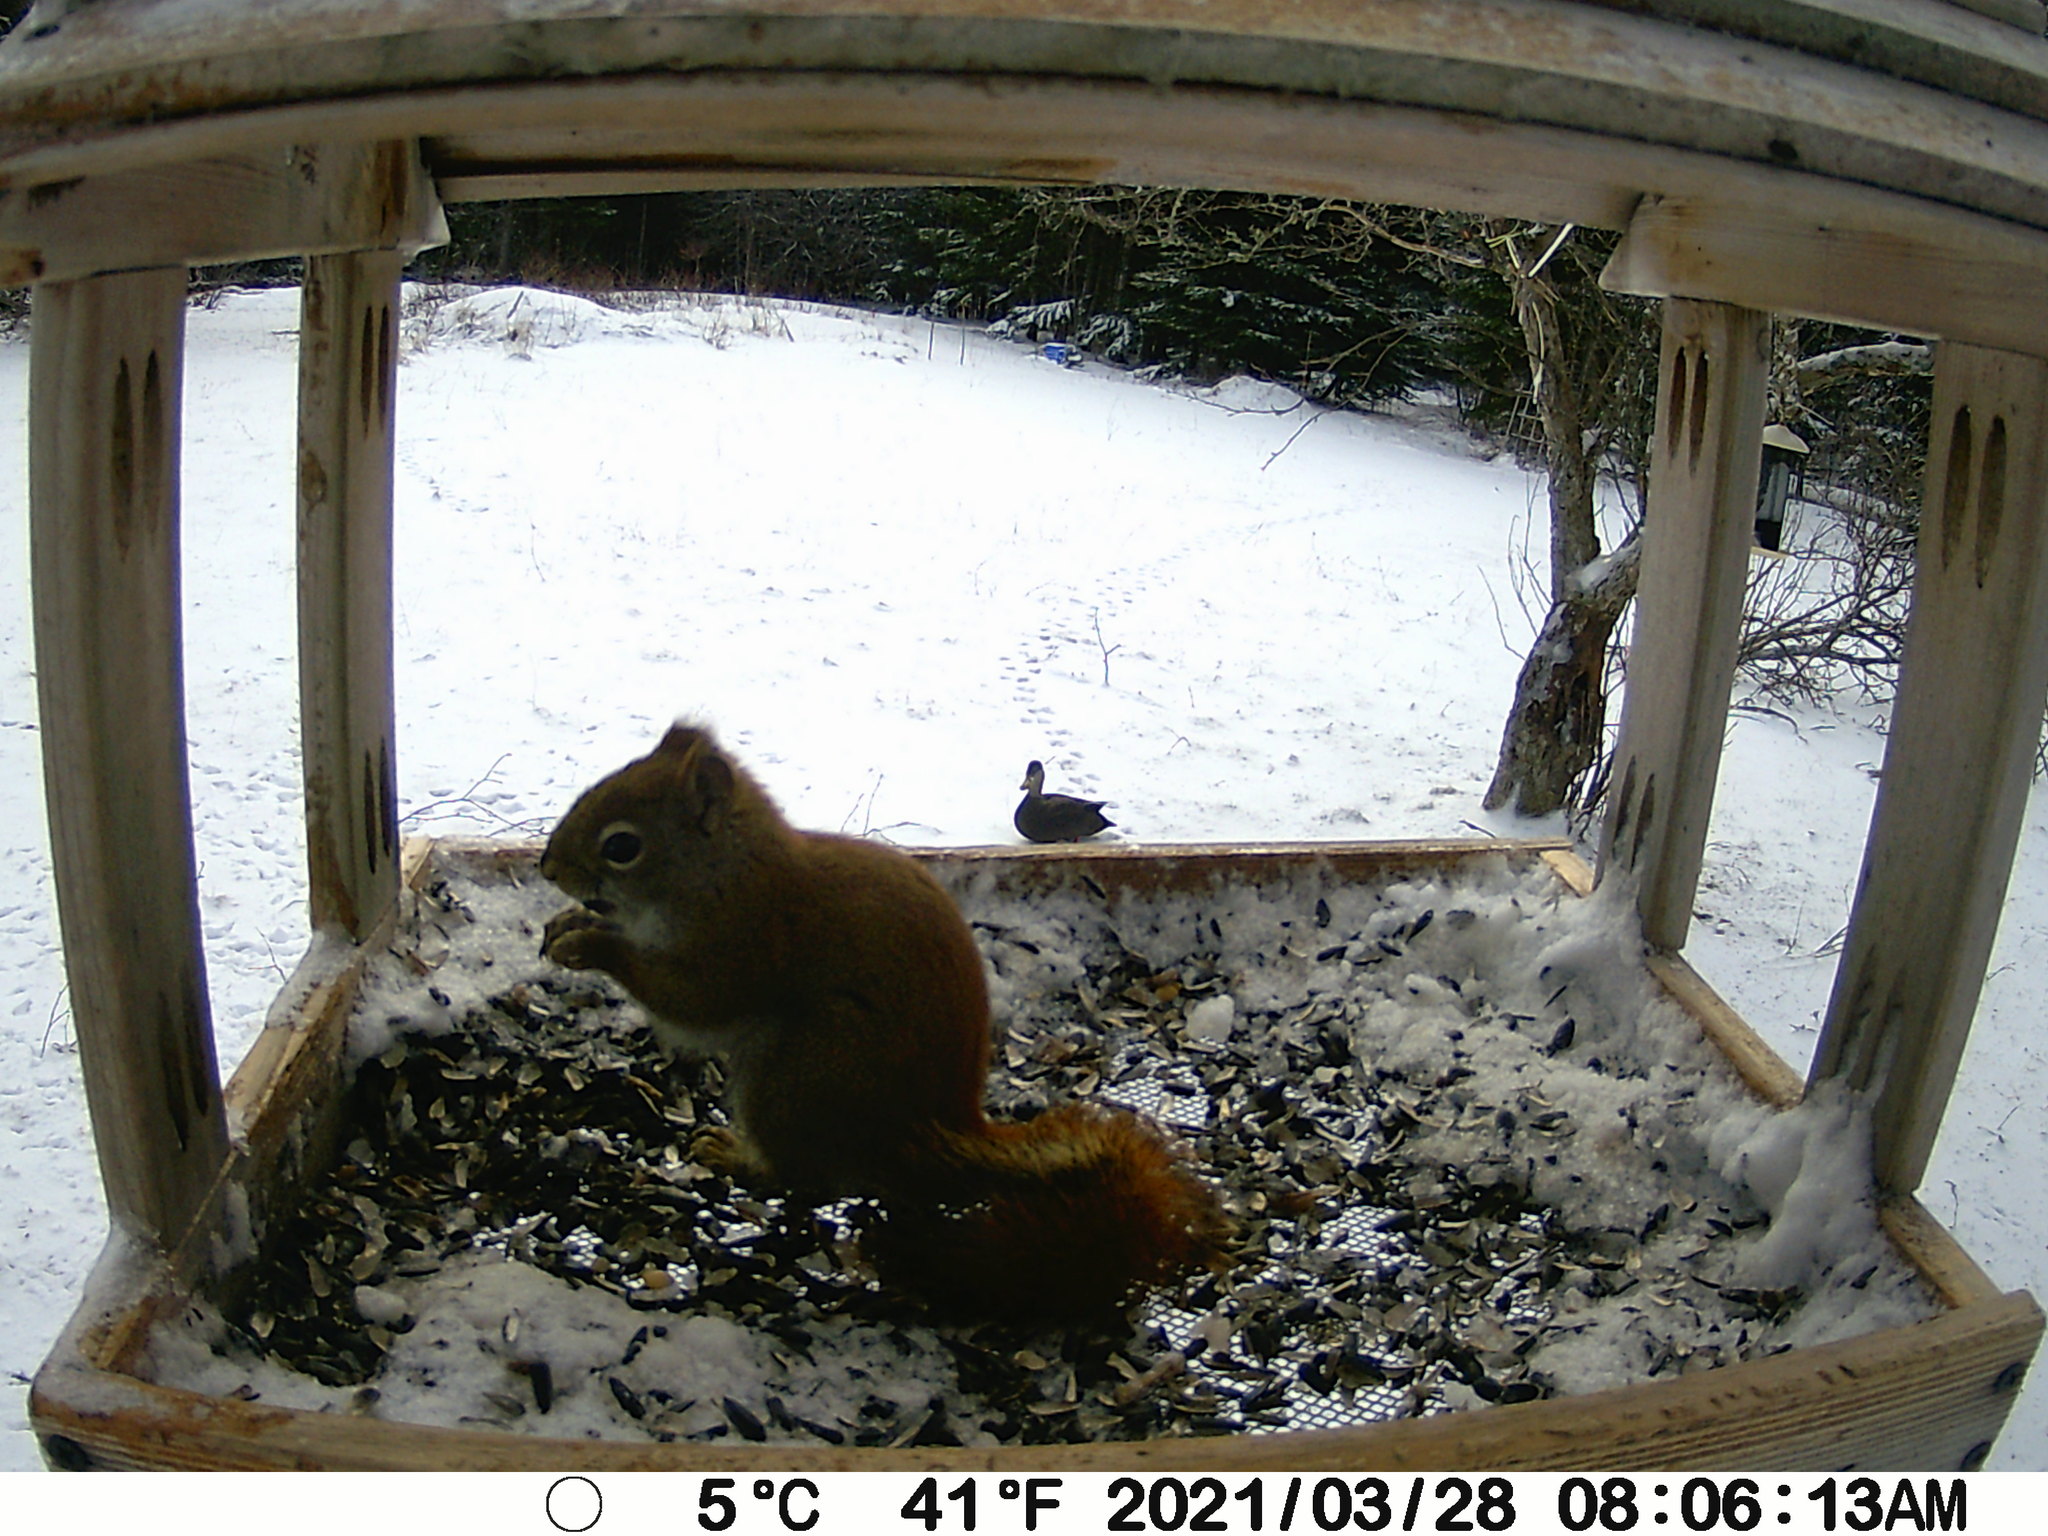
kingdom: Animalia
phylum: Chordata
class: Aves
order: Anseriformes
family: Anatidae
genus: Anas
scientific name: Anas rubripes
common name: American black duck
